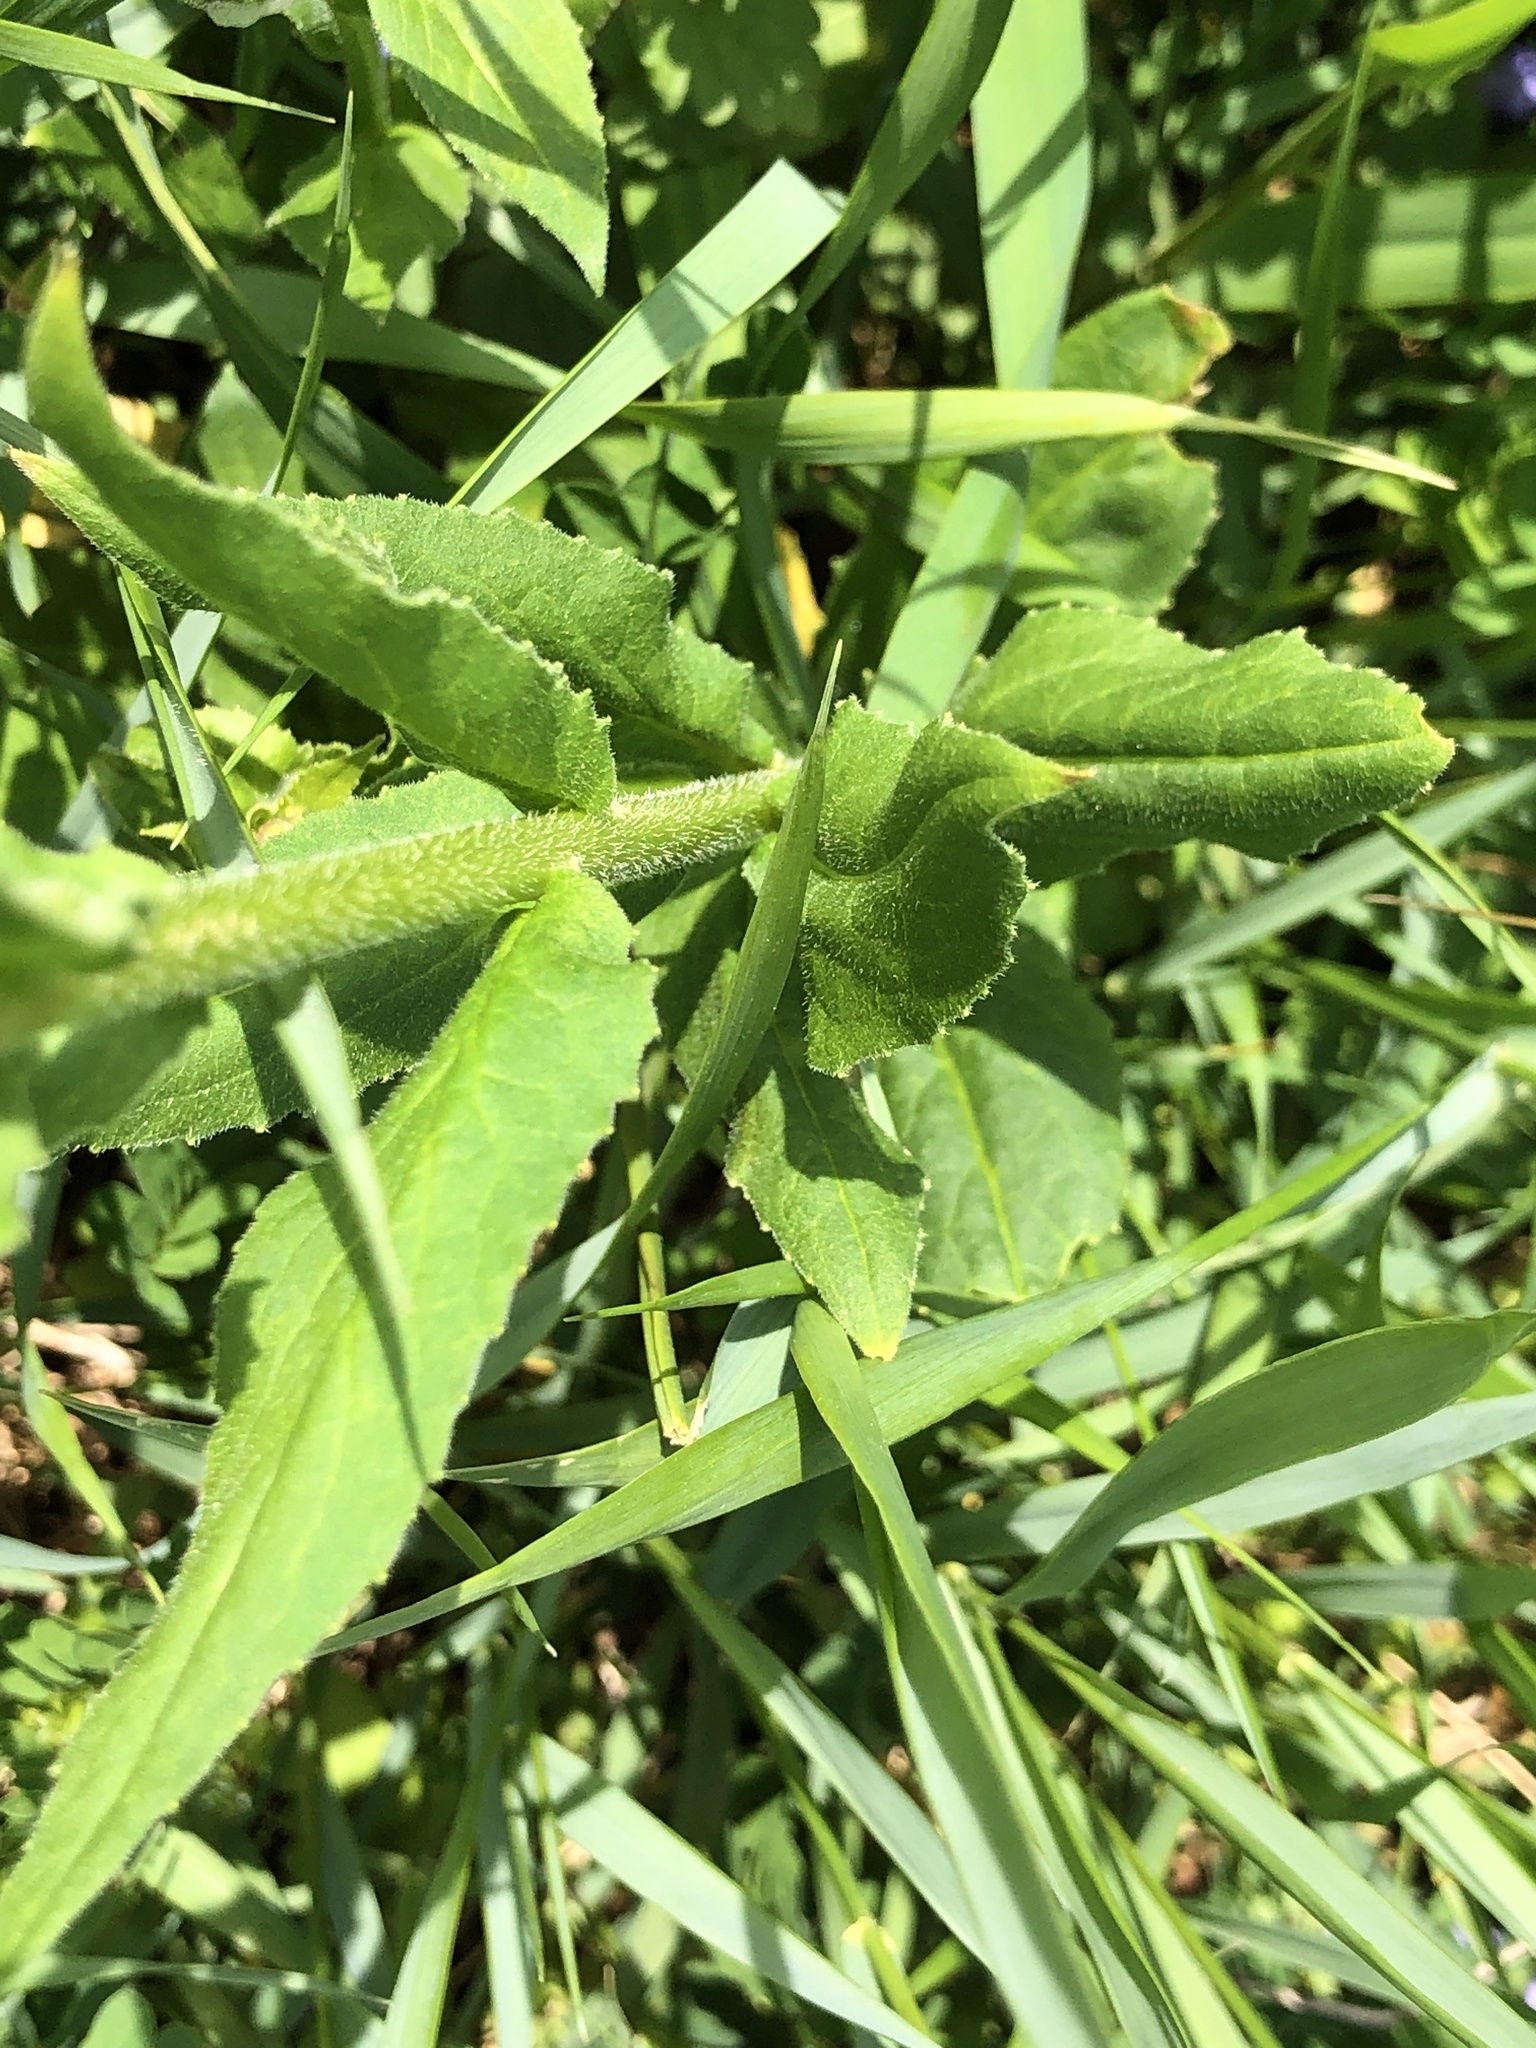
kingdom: Plantae
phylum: Tracheophyta
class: Magnoliopsida
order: Brassicales
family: Brassicaceae
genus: Hesperis
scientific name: Hesperis matronalis
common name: Dame's-violet
